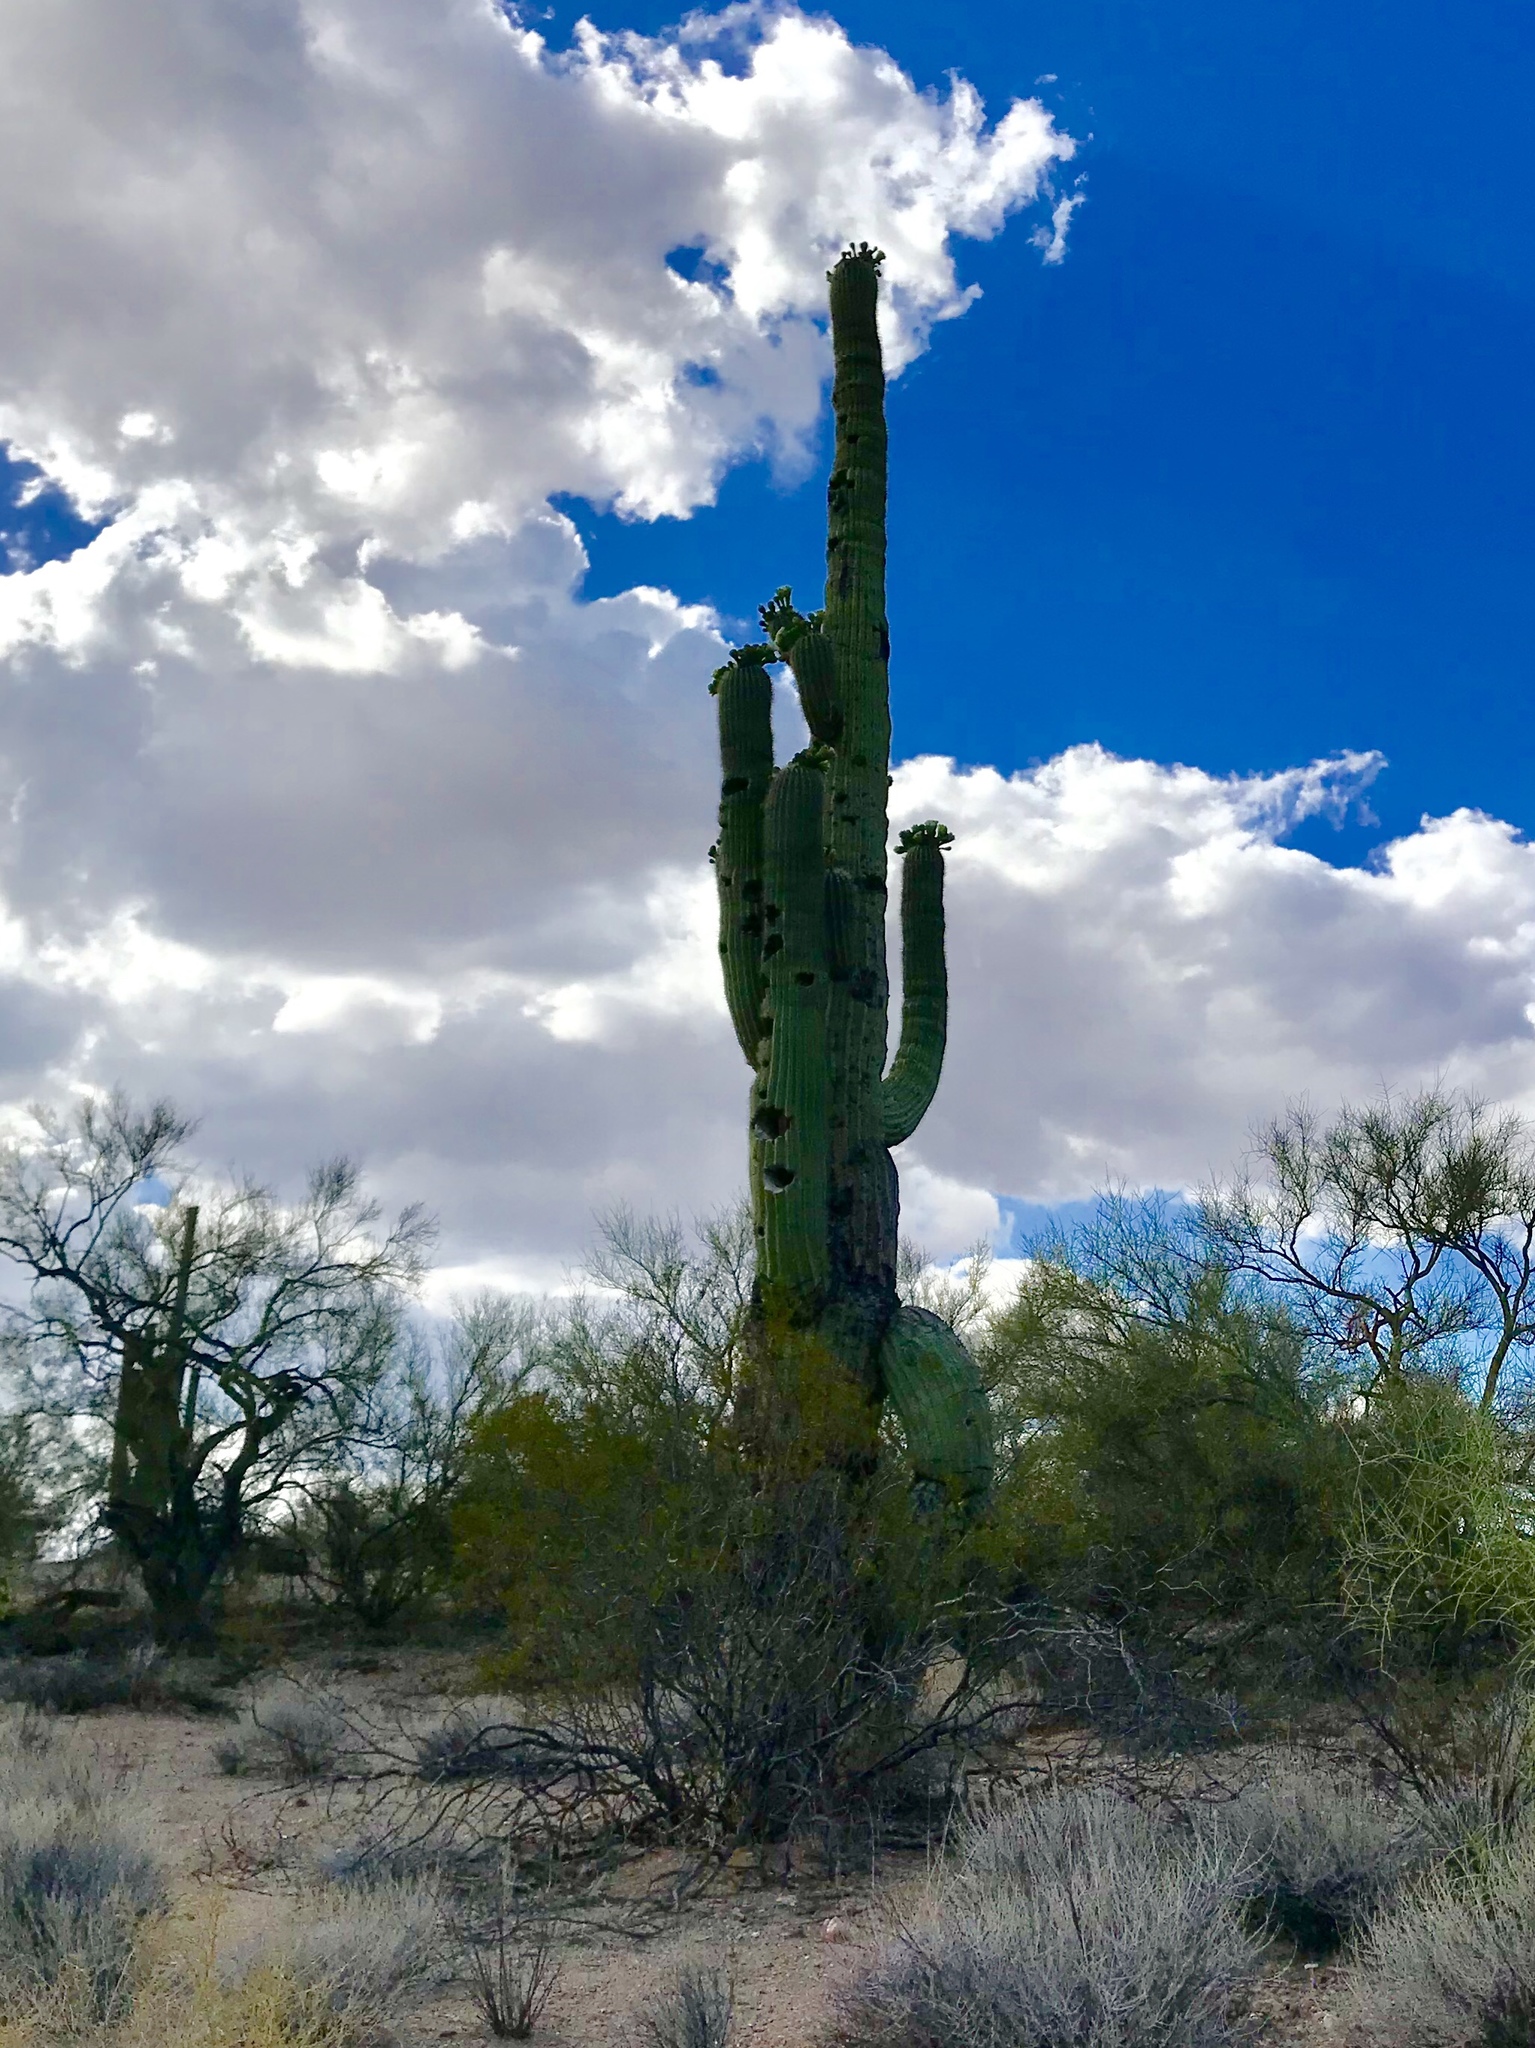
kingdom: Plantae
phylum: Tracheophyta
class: Magnoliopsida
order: Caryophyllales
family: Cactaceae
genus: Carnegiea
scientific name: Carnegiea gigantea
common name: Saguaro
